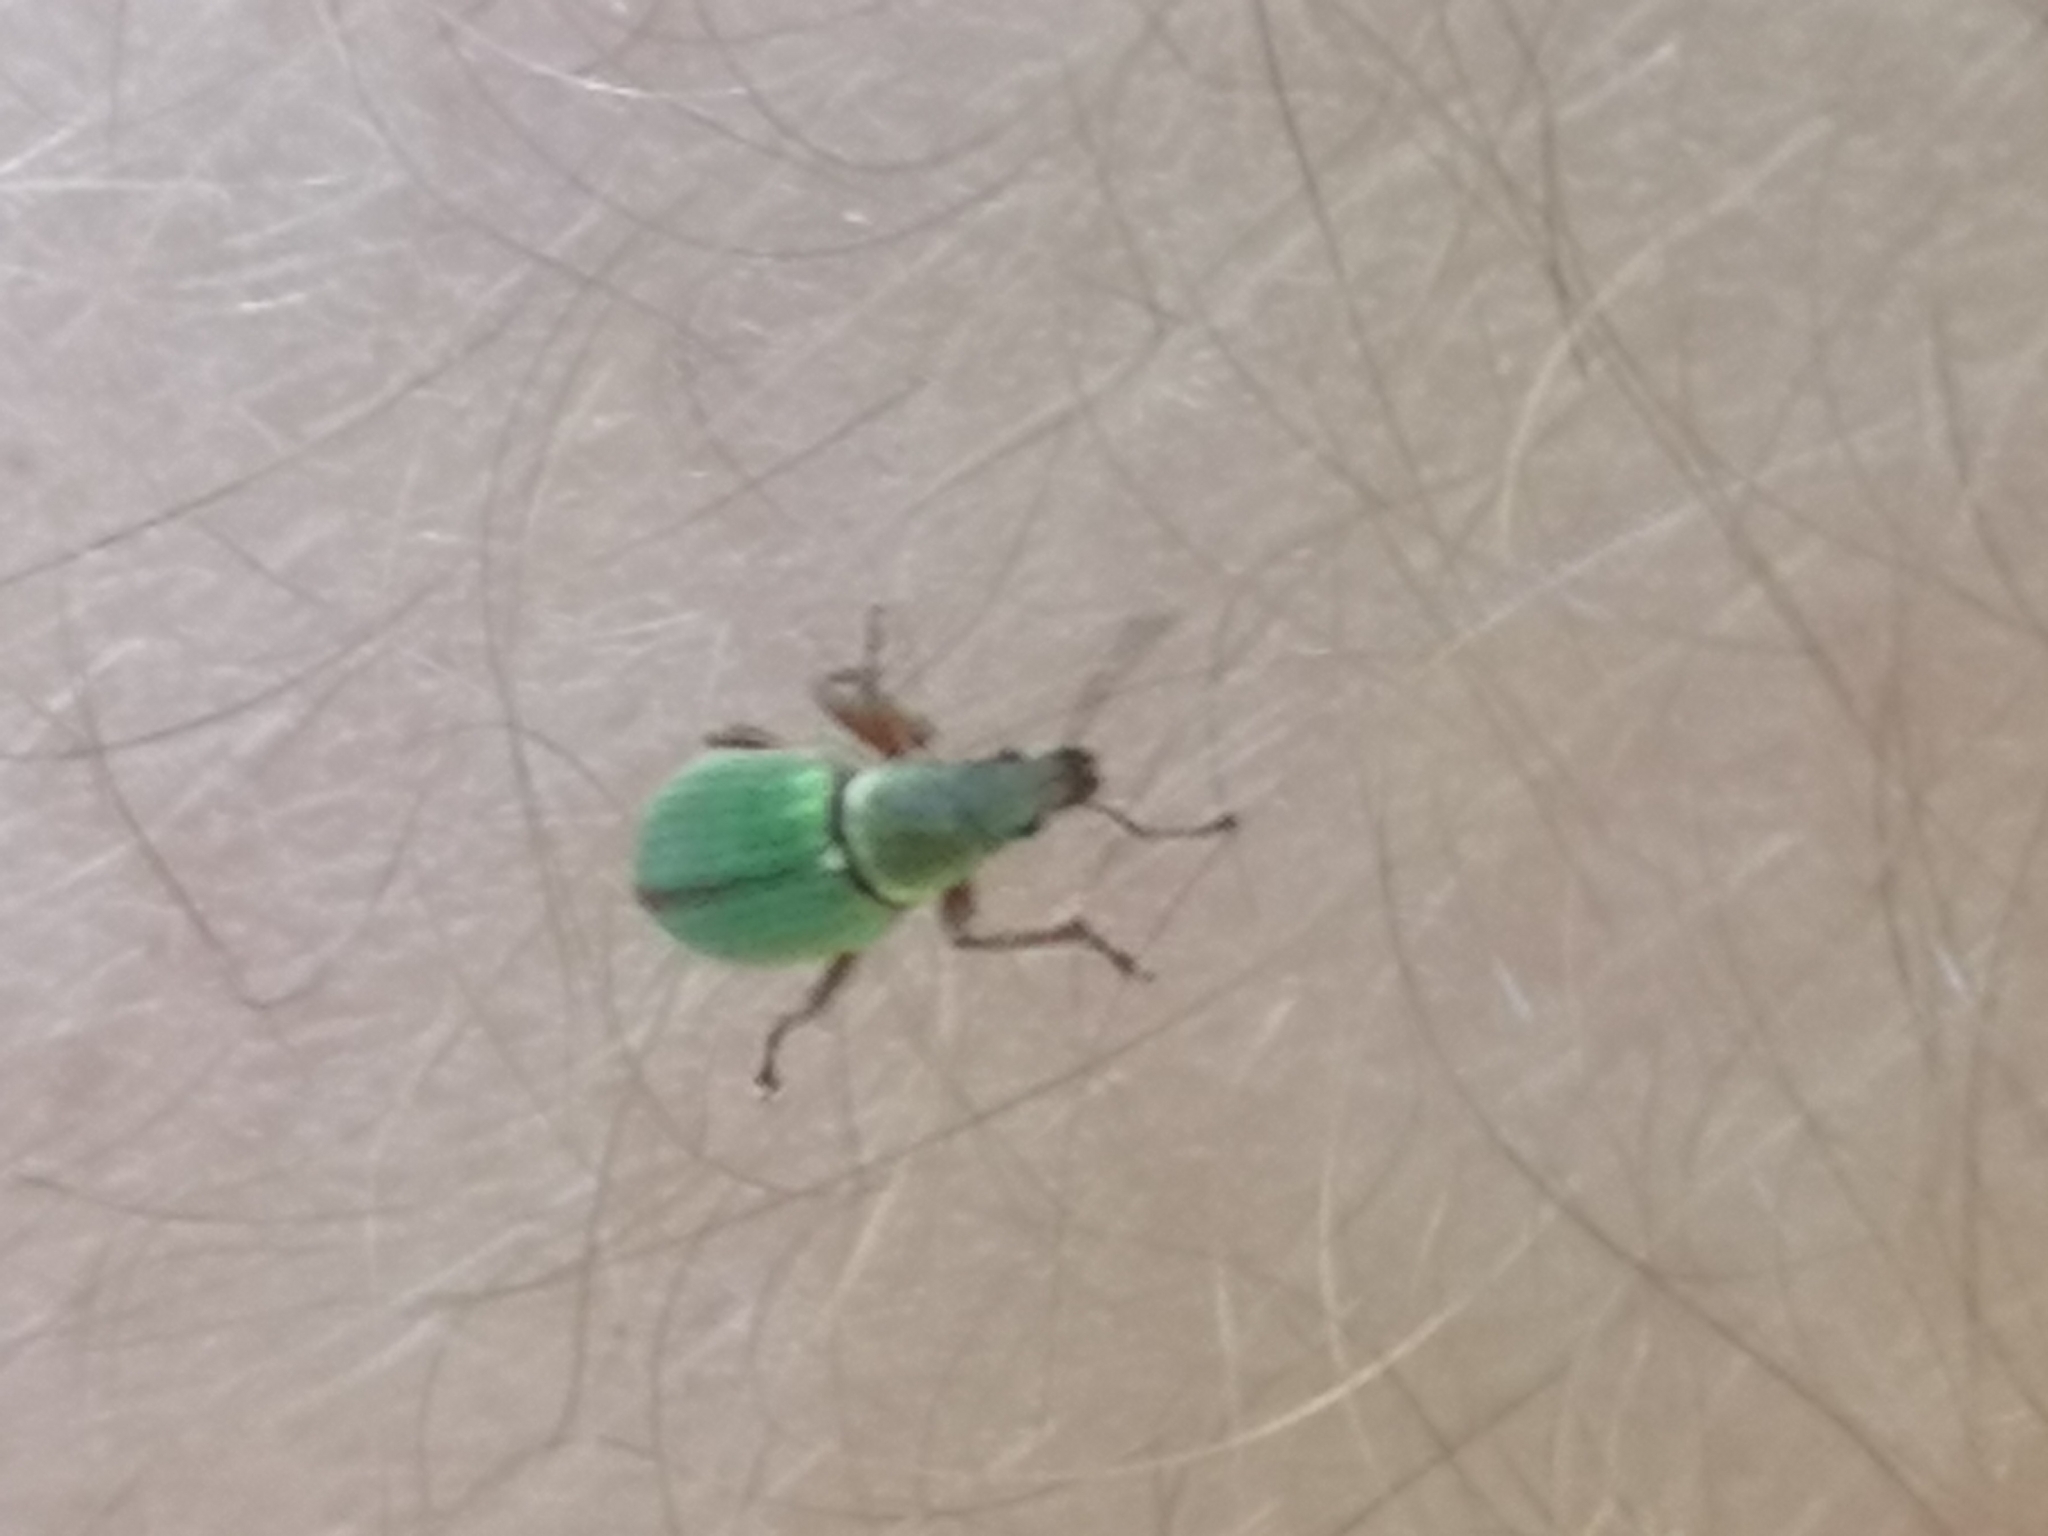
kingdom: Animalia
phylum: Arthropoda
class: Insecta
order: Coleoptera
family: Curculionidae
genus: Polydrusus
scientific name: Polydrusus viridinitens
